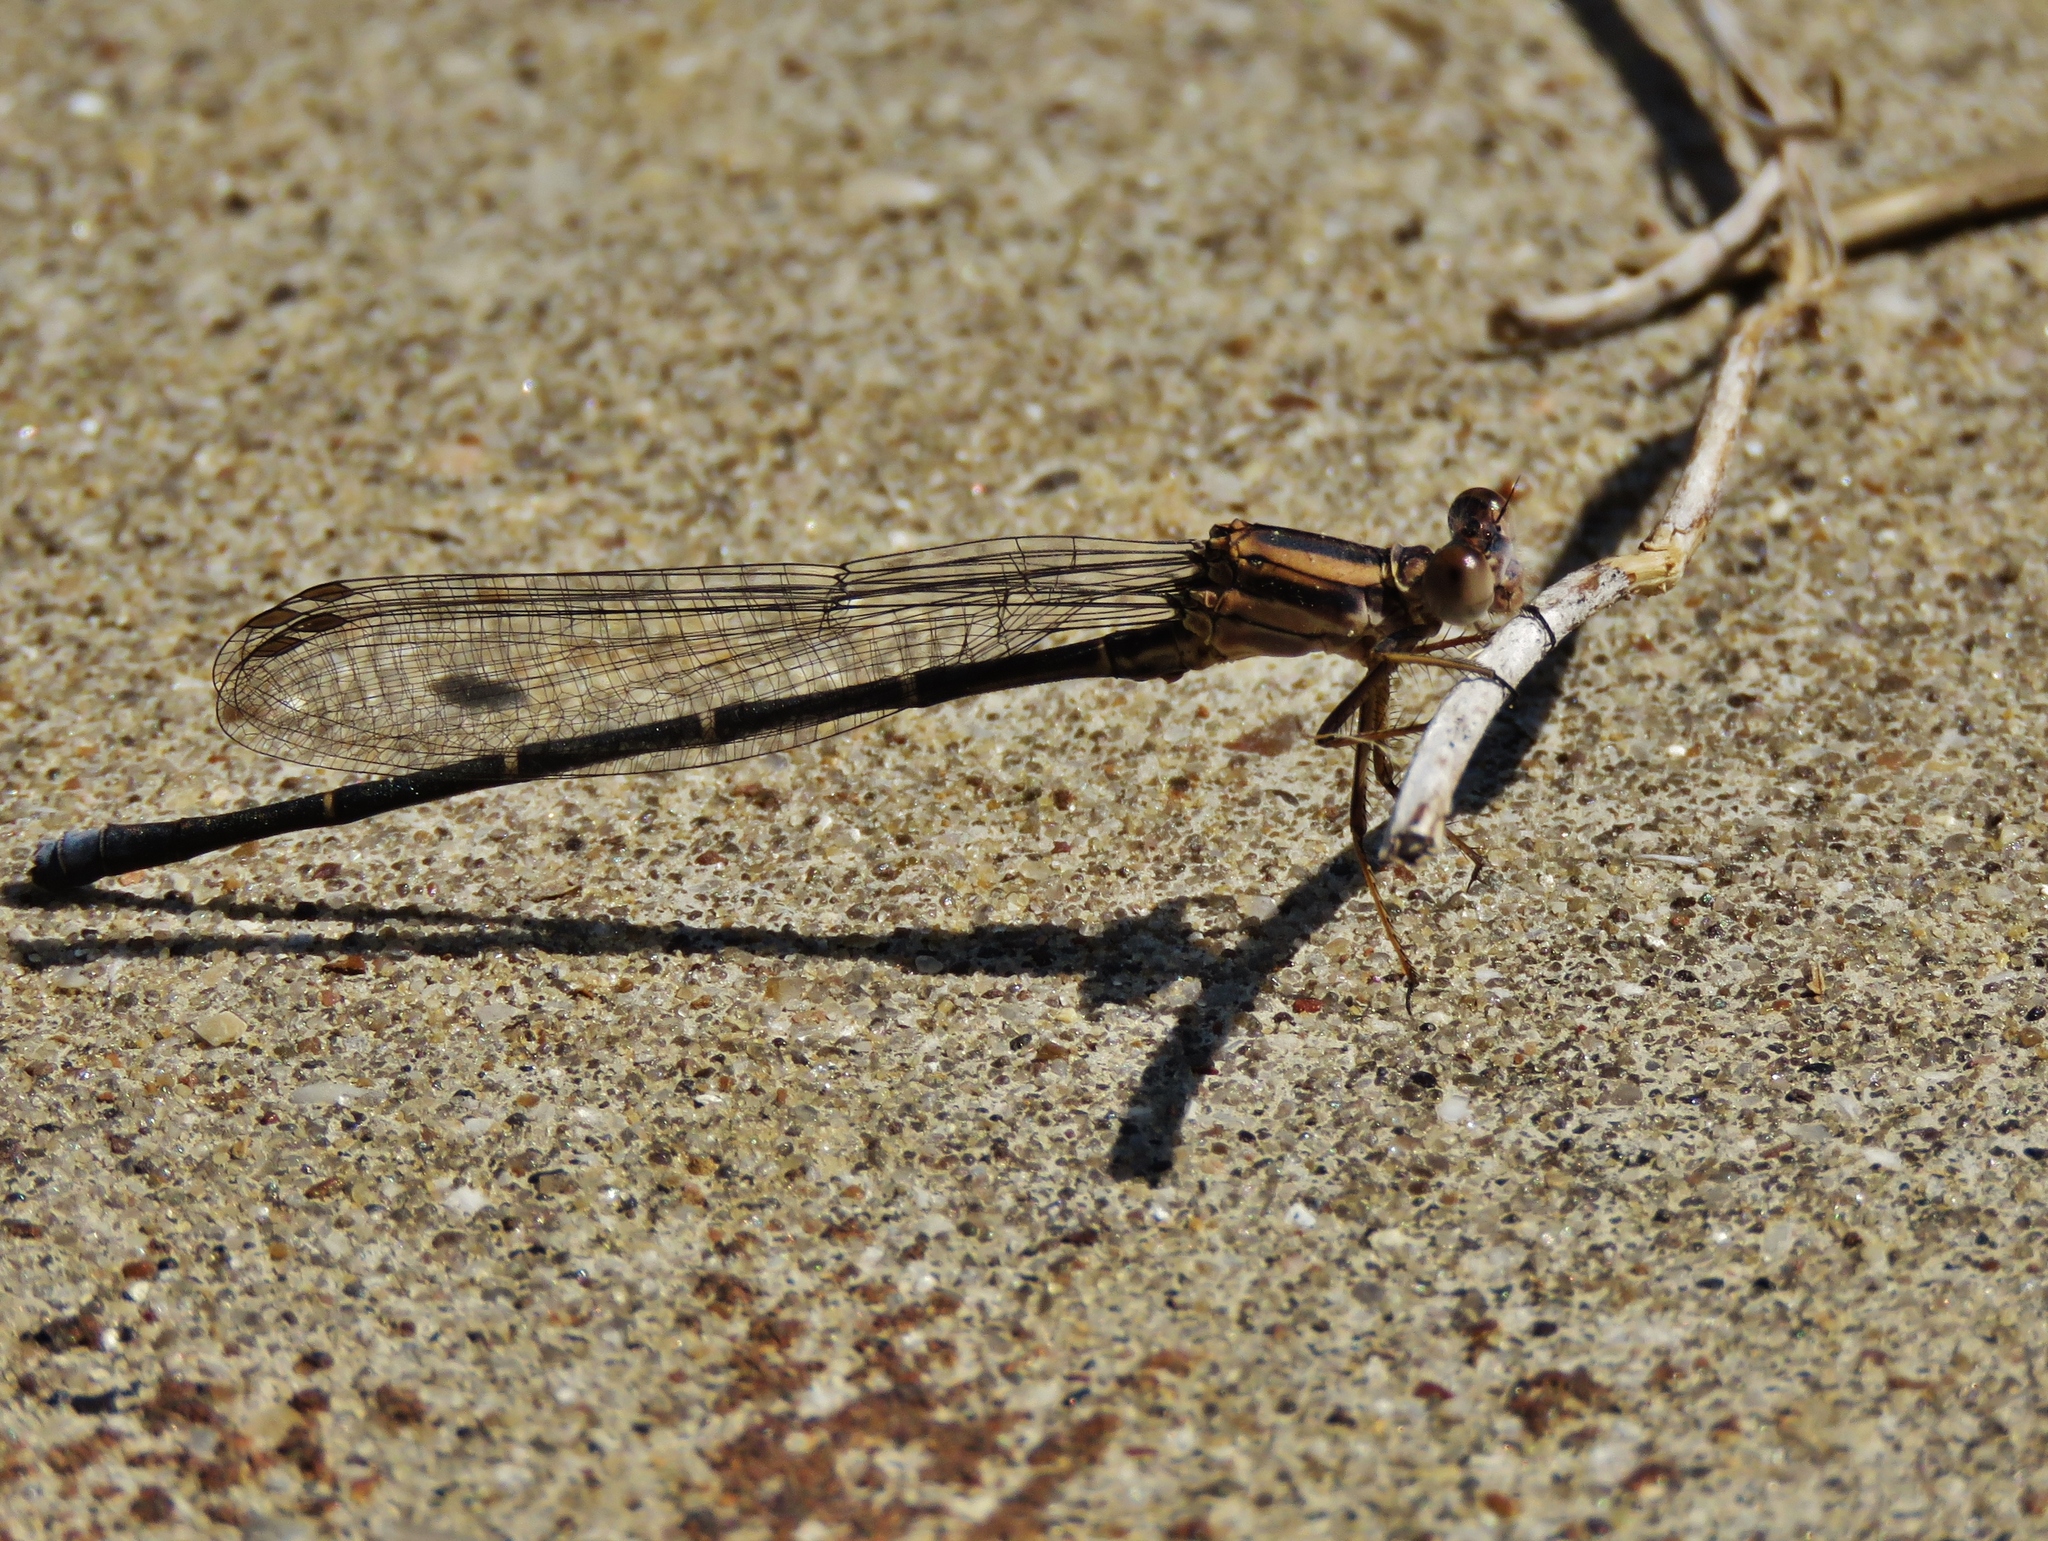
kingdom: Animalia
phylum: Arthropoda
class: Insecta
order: Odonata
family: Coenagrionidae
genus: Argia
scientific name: Argia moesta
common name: Powdered dancer
